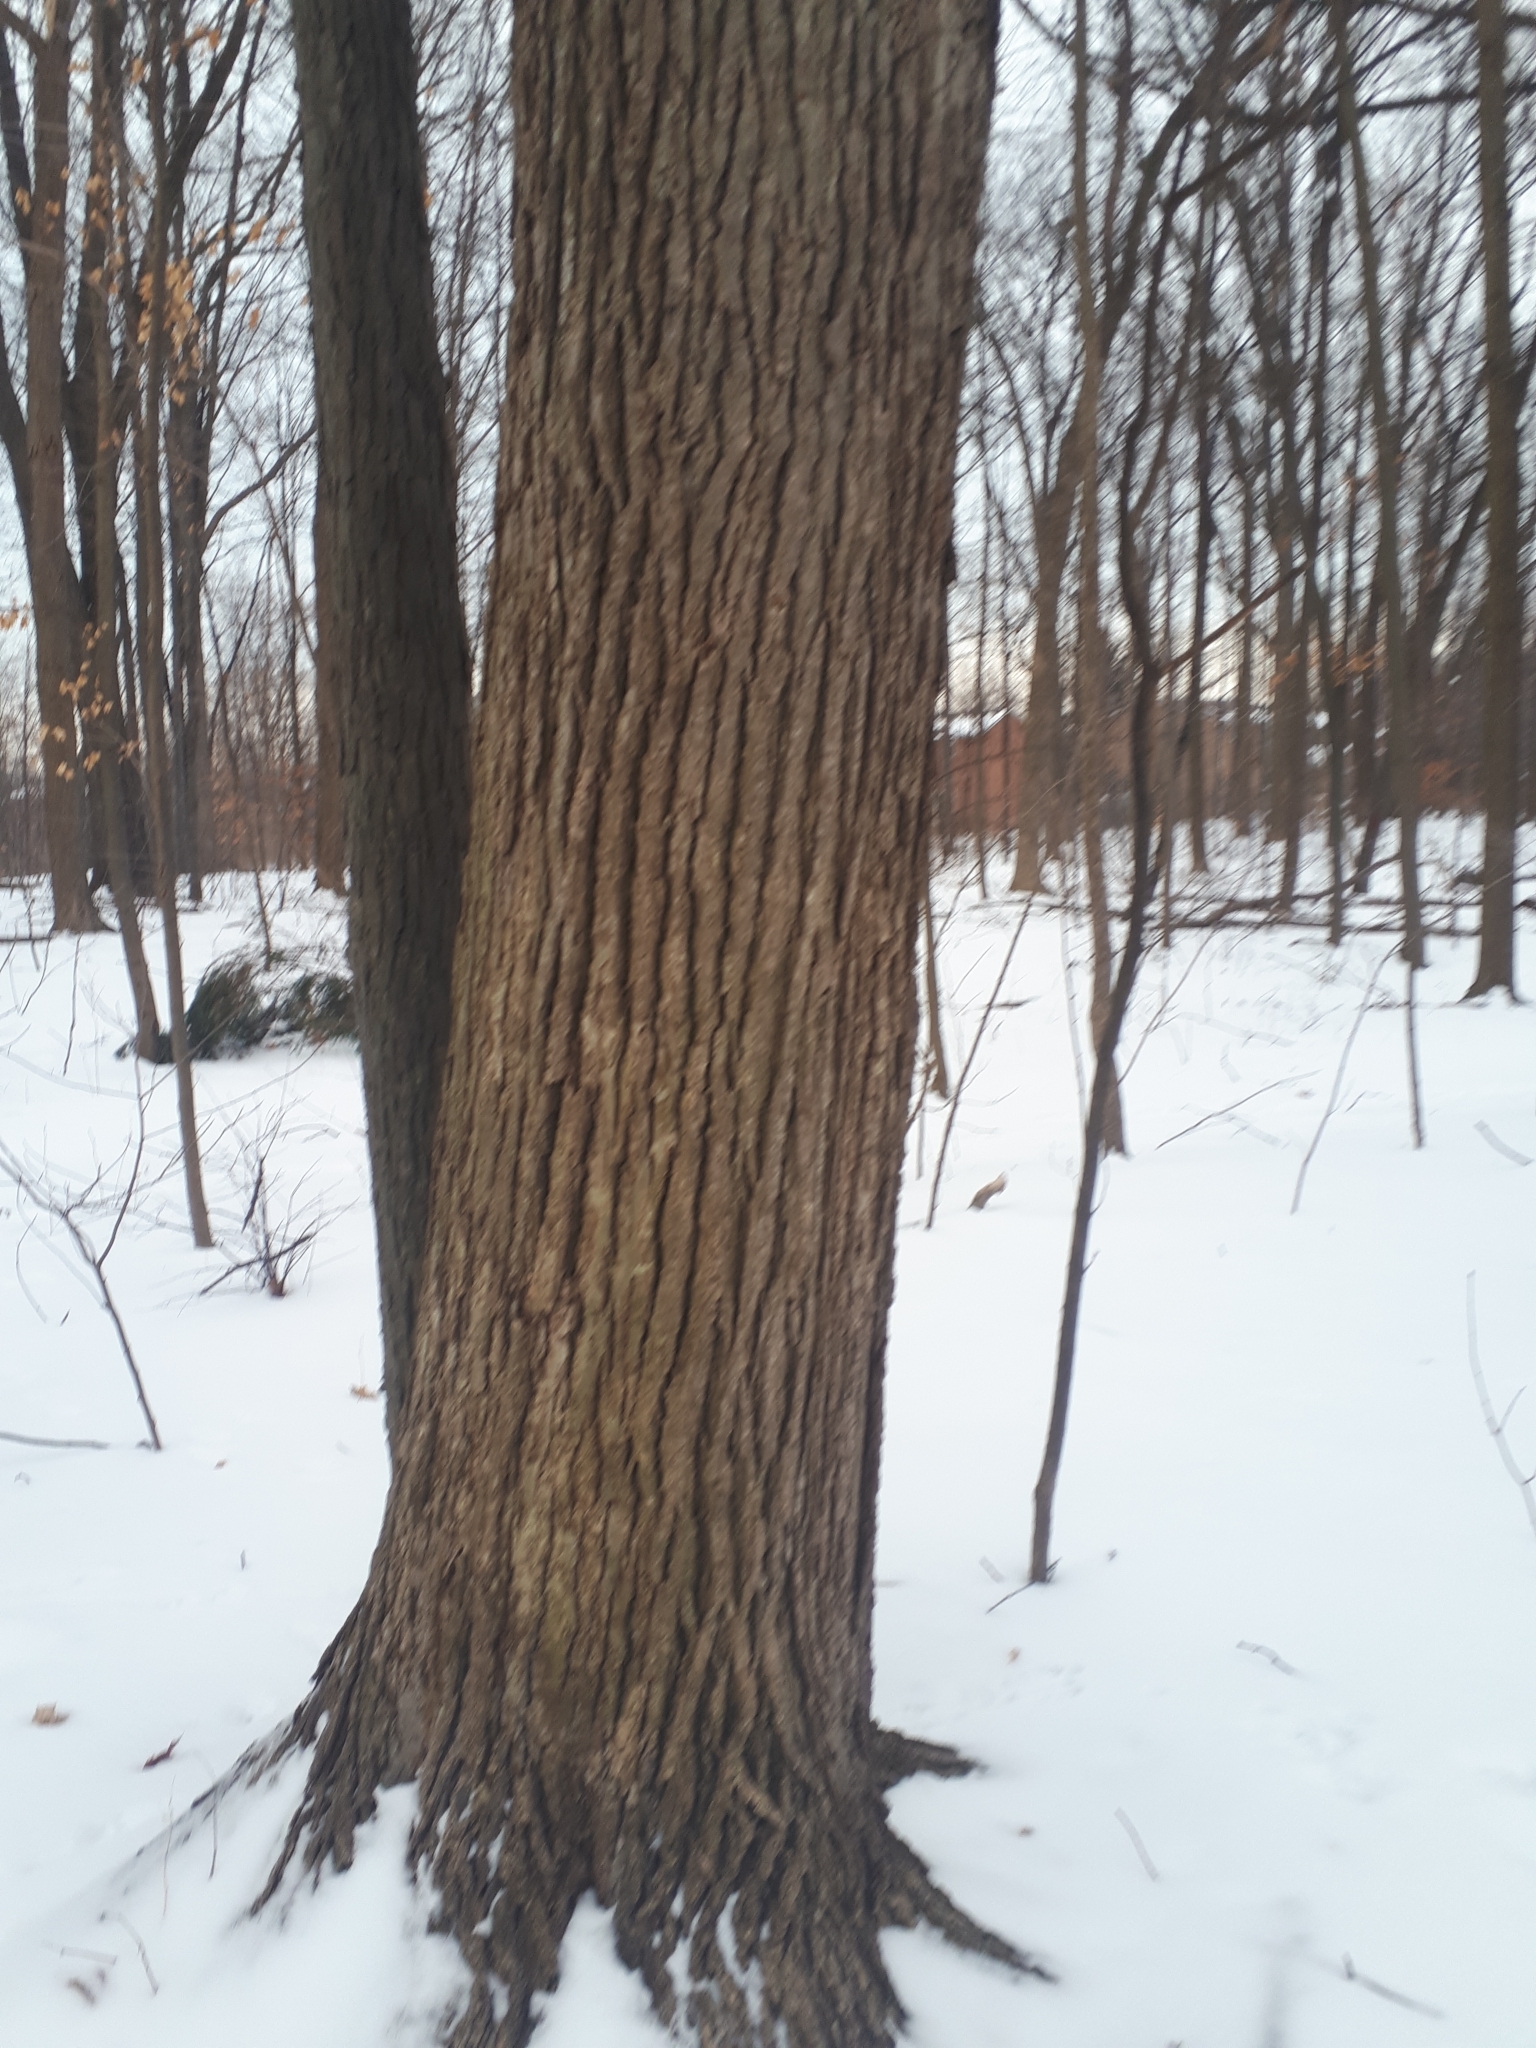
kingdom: Plantae
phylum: Tracheophyta
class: Magnoliopsida
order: Fagales
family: Fagaceae
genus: Quercus
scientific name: Quercus macrocarpa
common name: Bur oak
